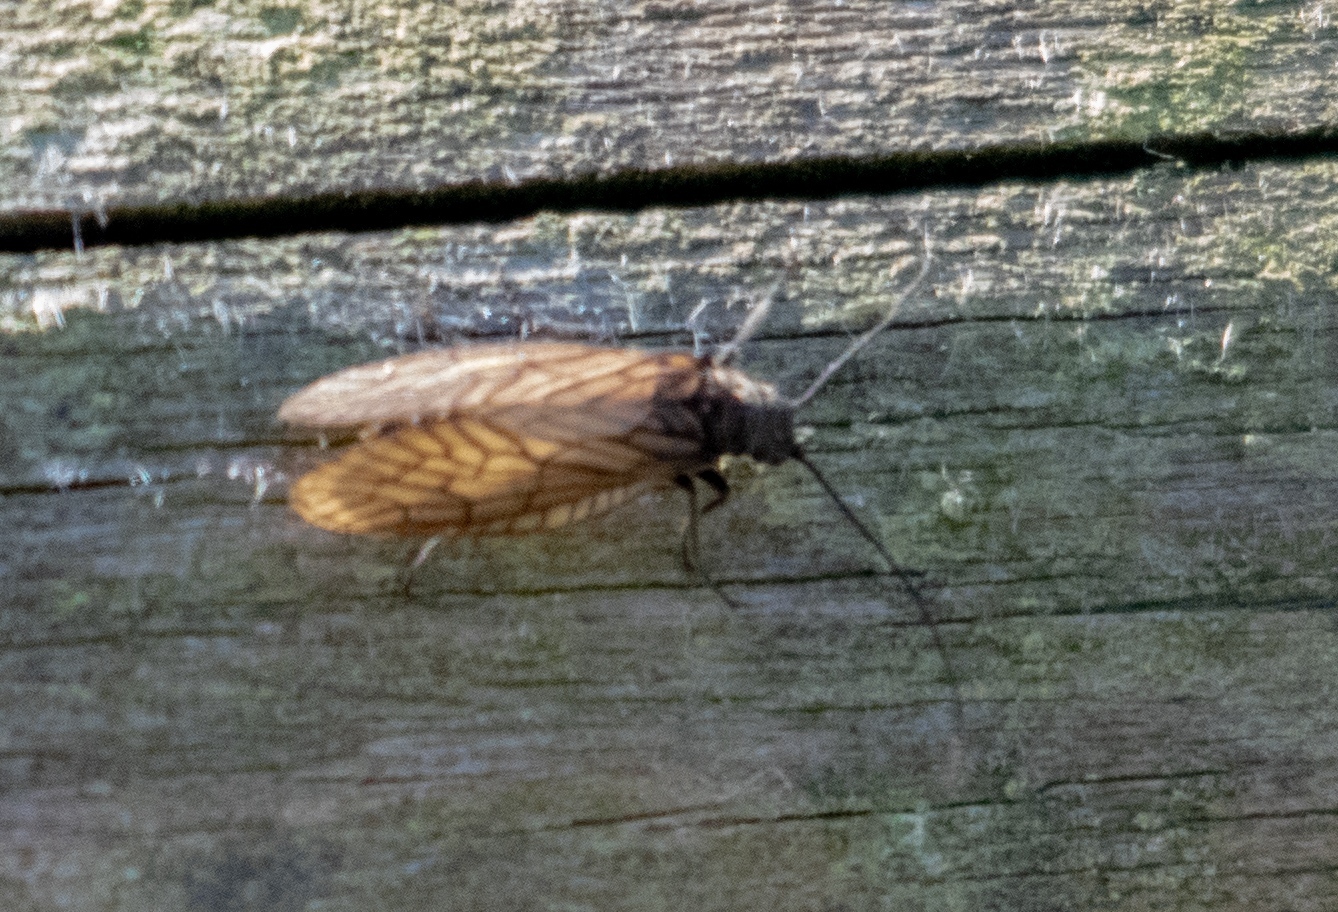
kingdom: Animalia
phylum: Arthropoda
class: Insecta
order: Megaloptera
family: Sialidae
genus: Sialis
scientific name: Sialis
